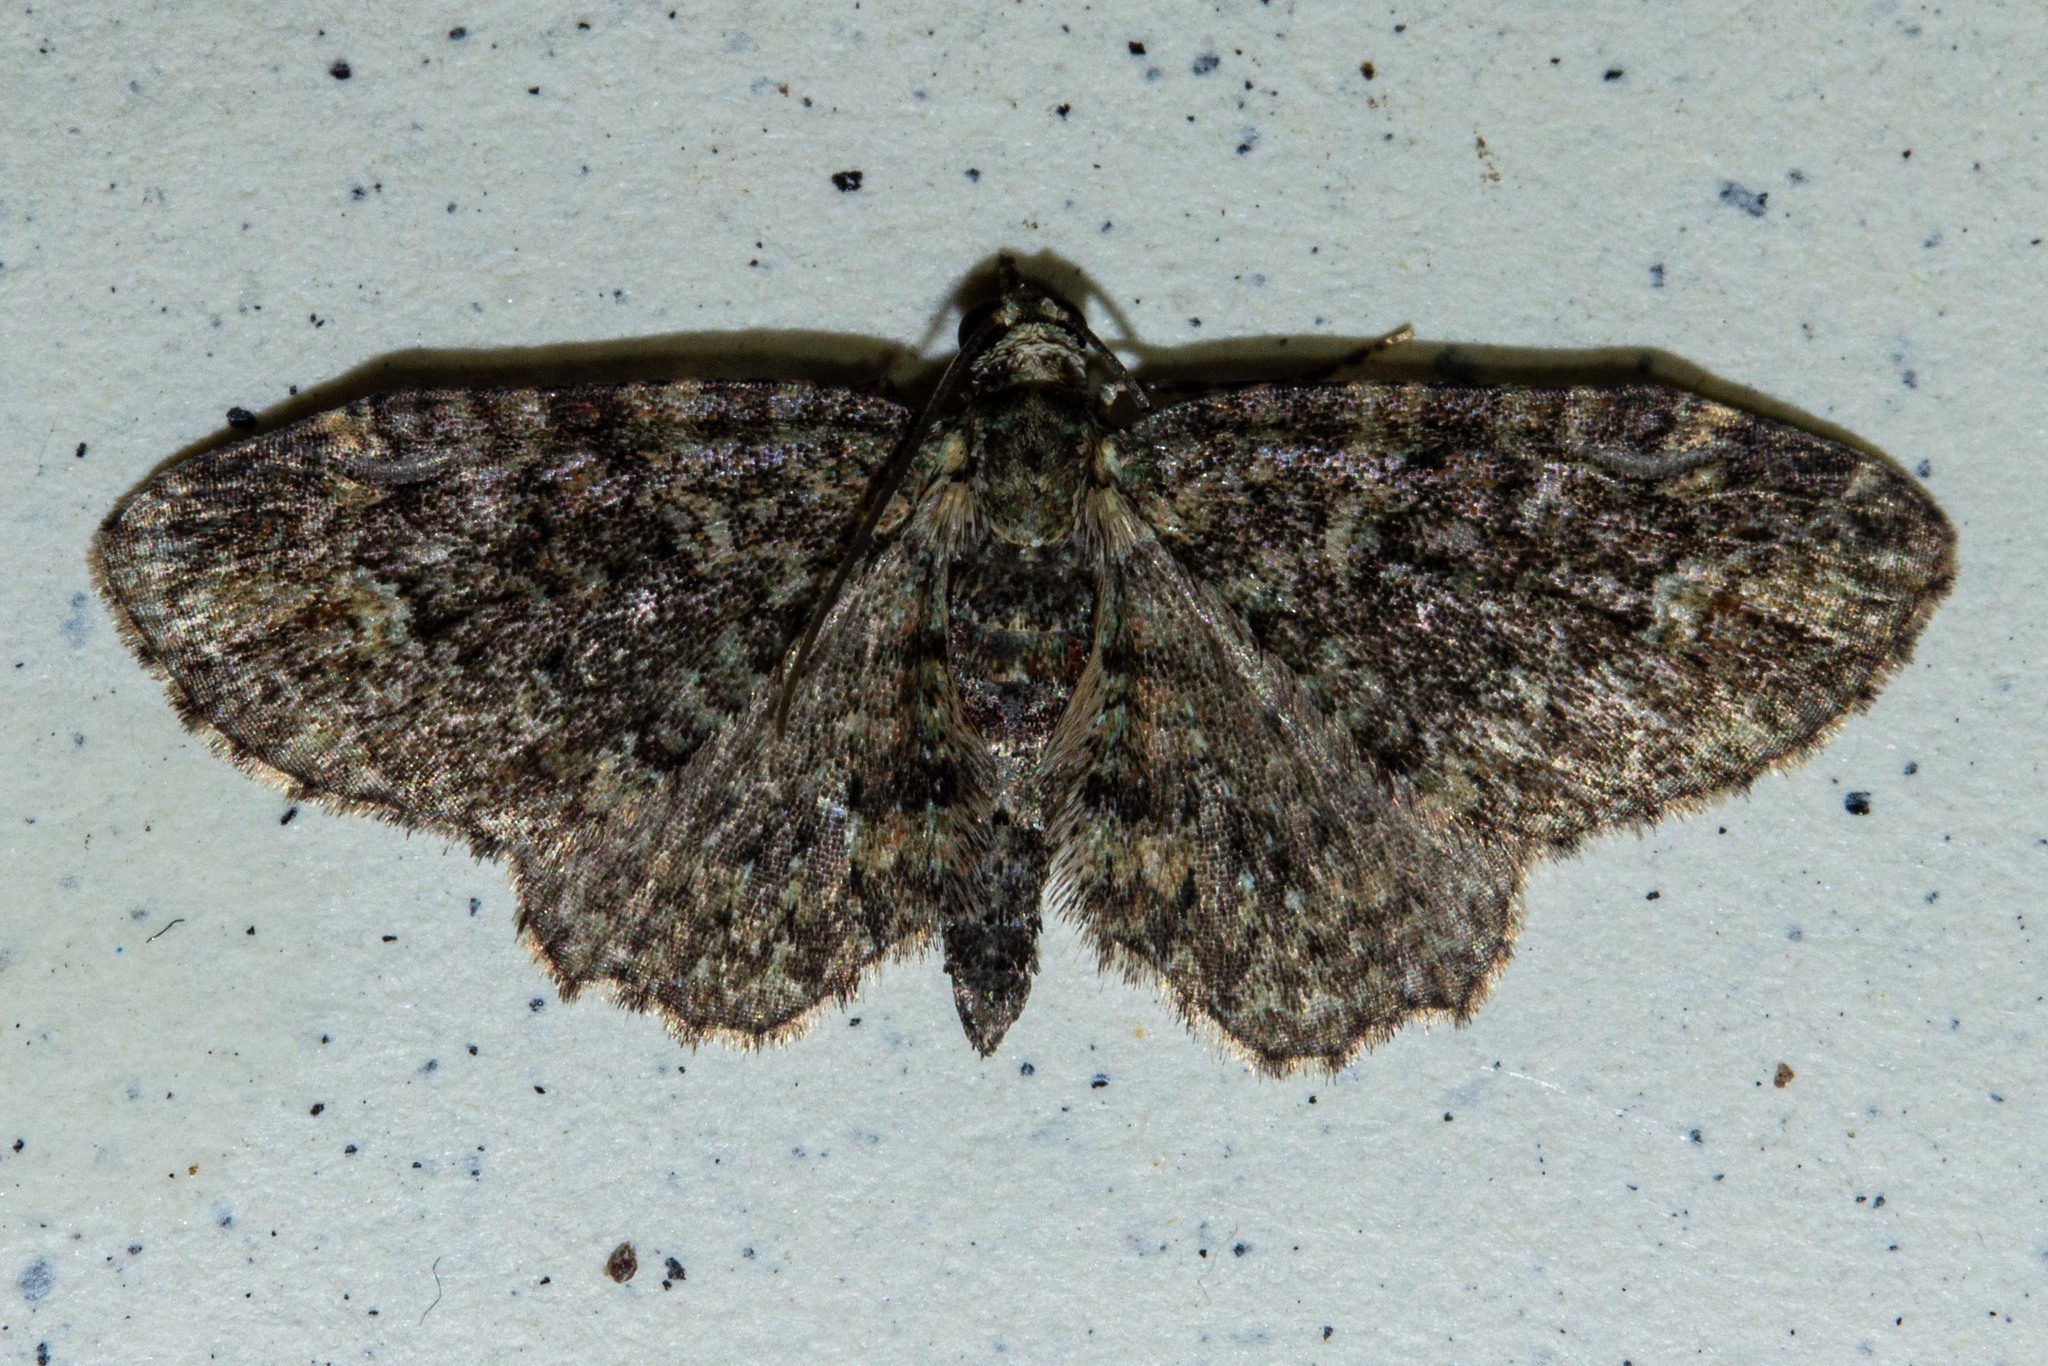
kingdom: Animalia
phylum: Arthropoda
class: Insecta
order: Lepidoptera
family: Geometridae
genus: Pasiphilodes
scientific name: Pasiphilodes testulata
